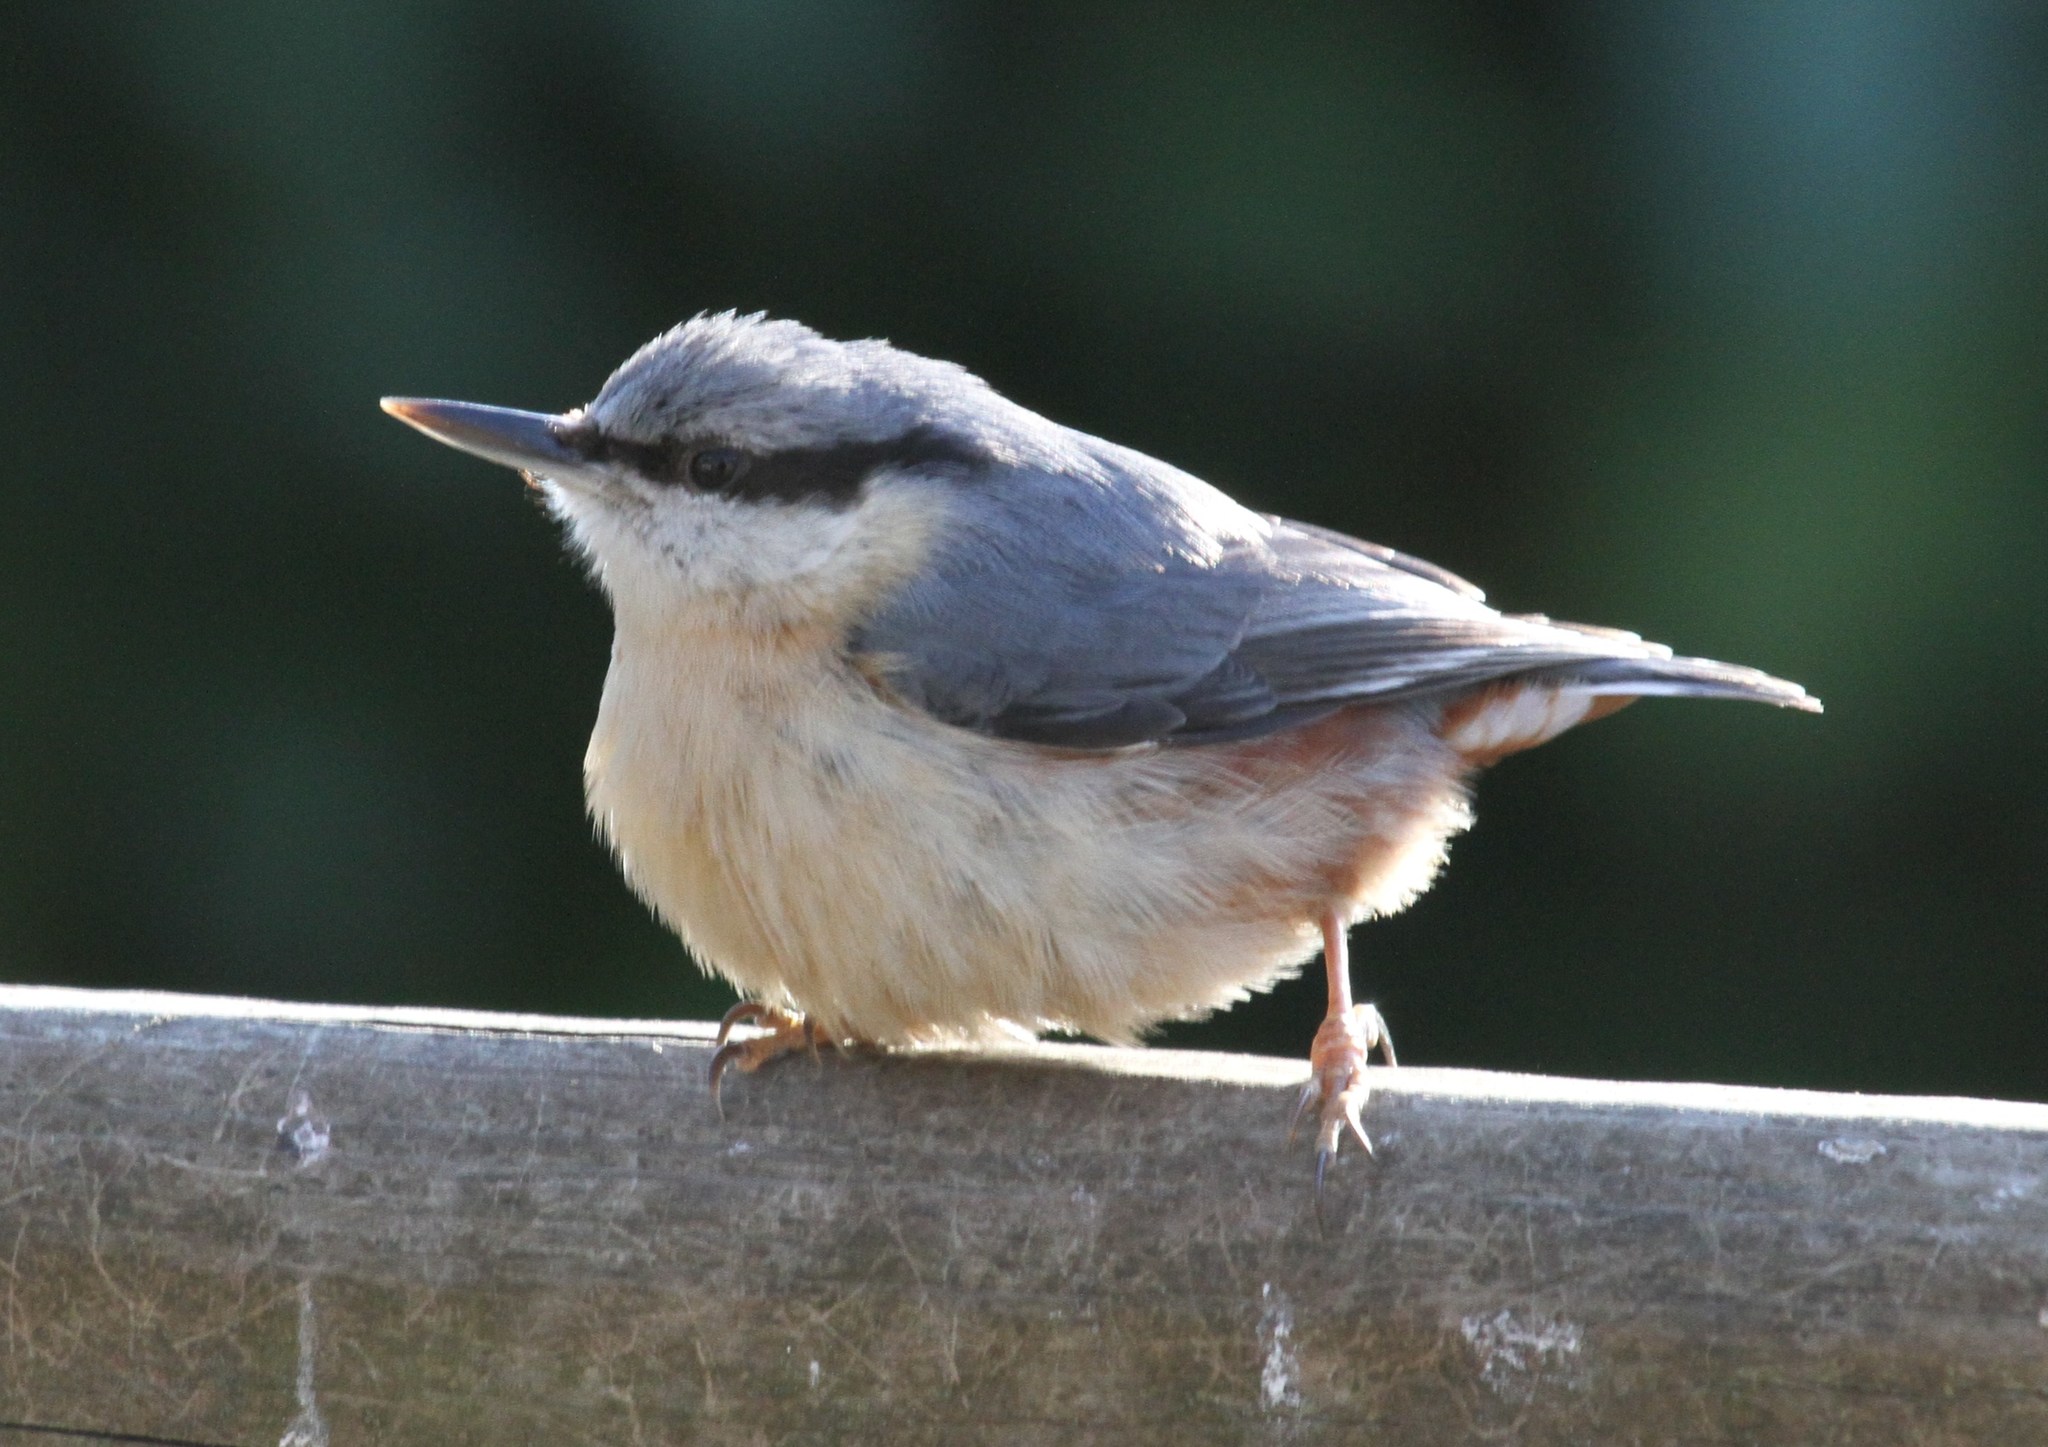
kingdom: Animalia
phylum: Chordata
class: Aves
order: Passeriformes
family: Sittidae
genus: Sitta
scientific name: Sitta europaea
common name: Eurasian nuthatch
